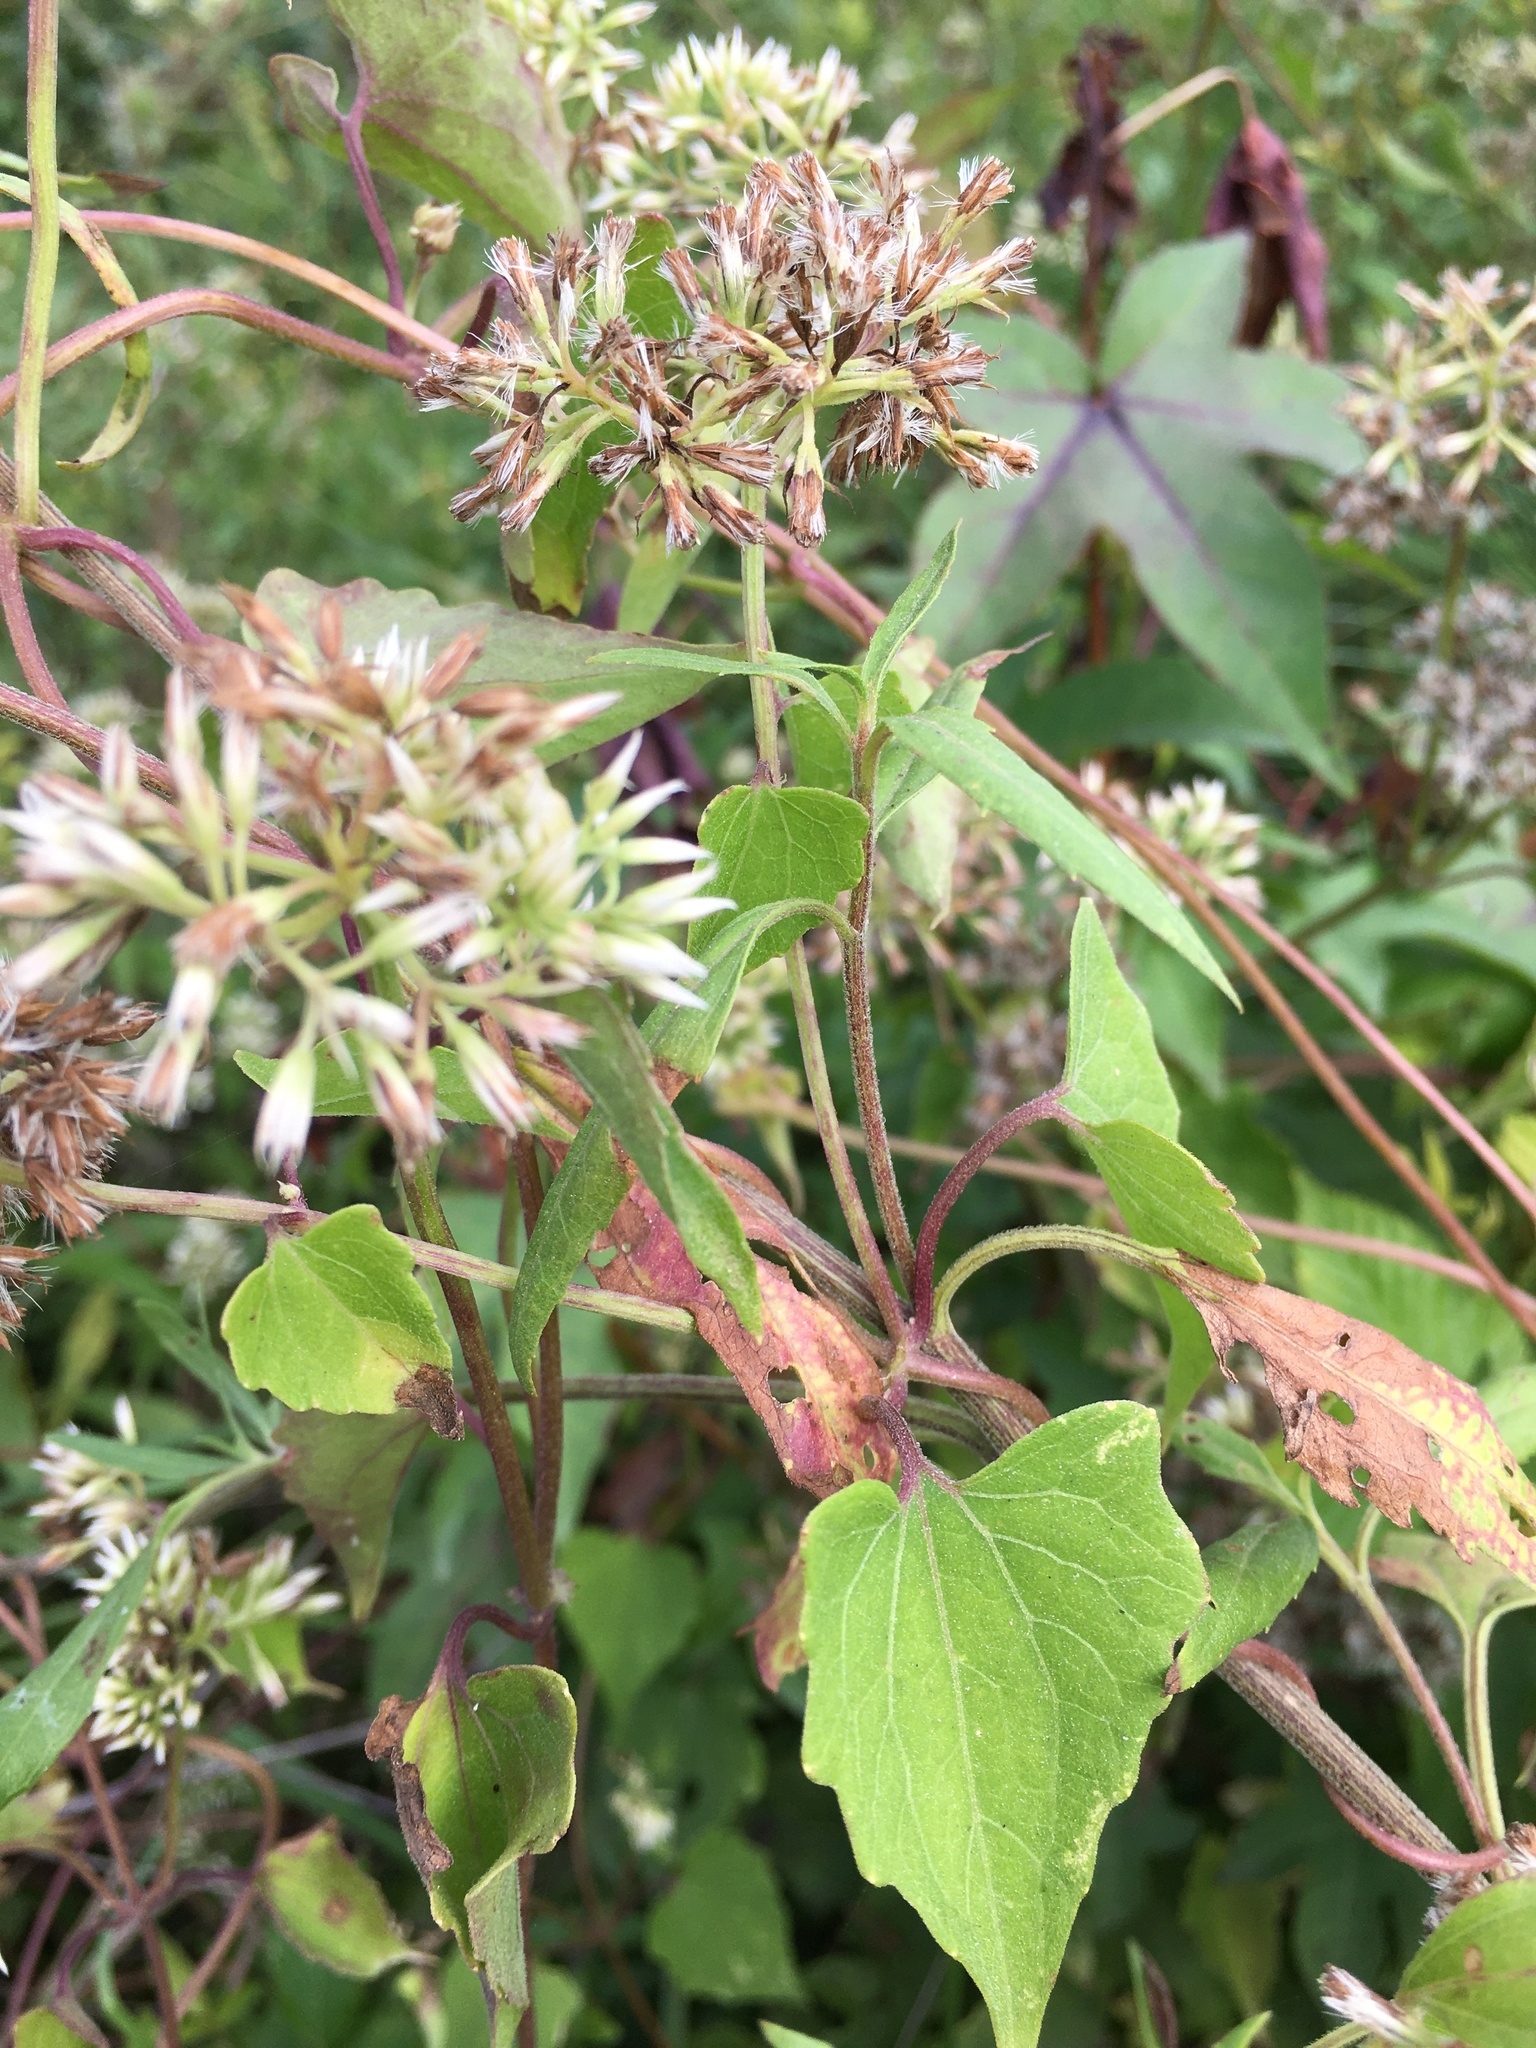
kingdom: Plantae
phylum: Tracheophyta
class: Magnoliopsida
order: Asterales
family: Asteraceae
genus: Mikania
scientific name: Mikania scandens
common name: Climbing hempvine
